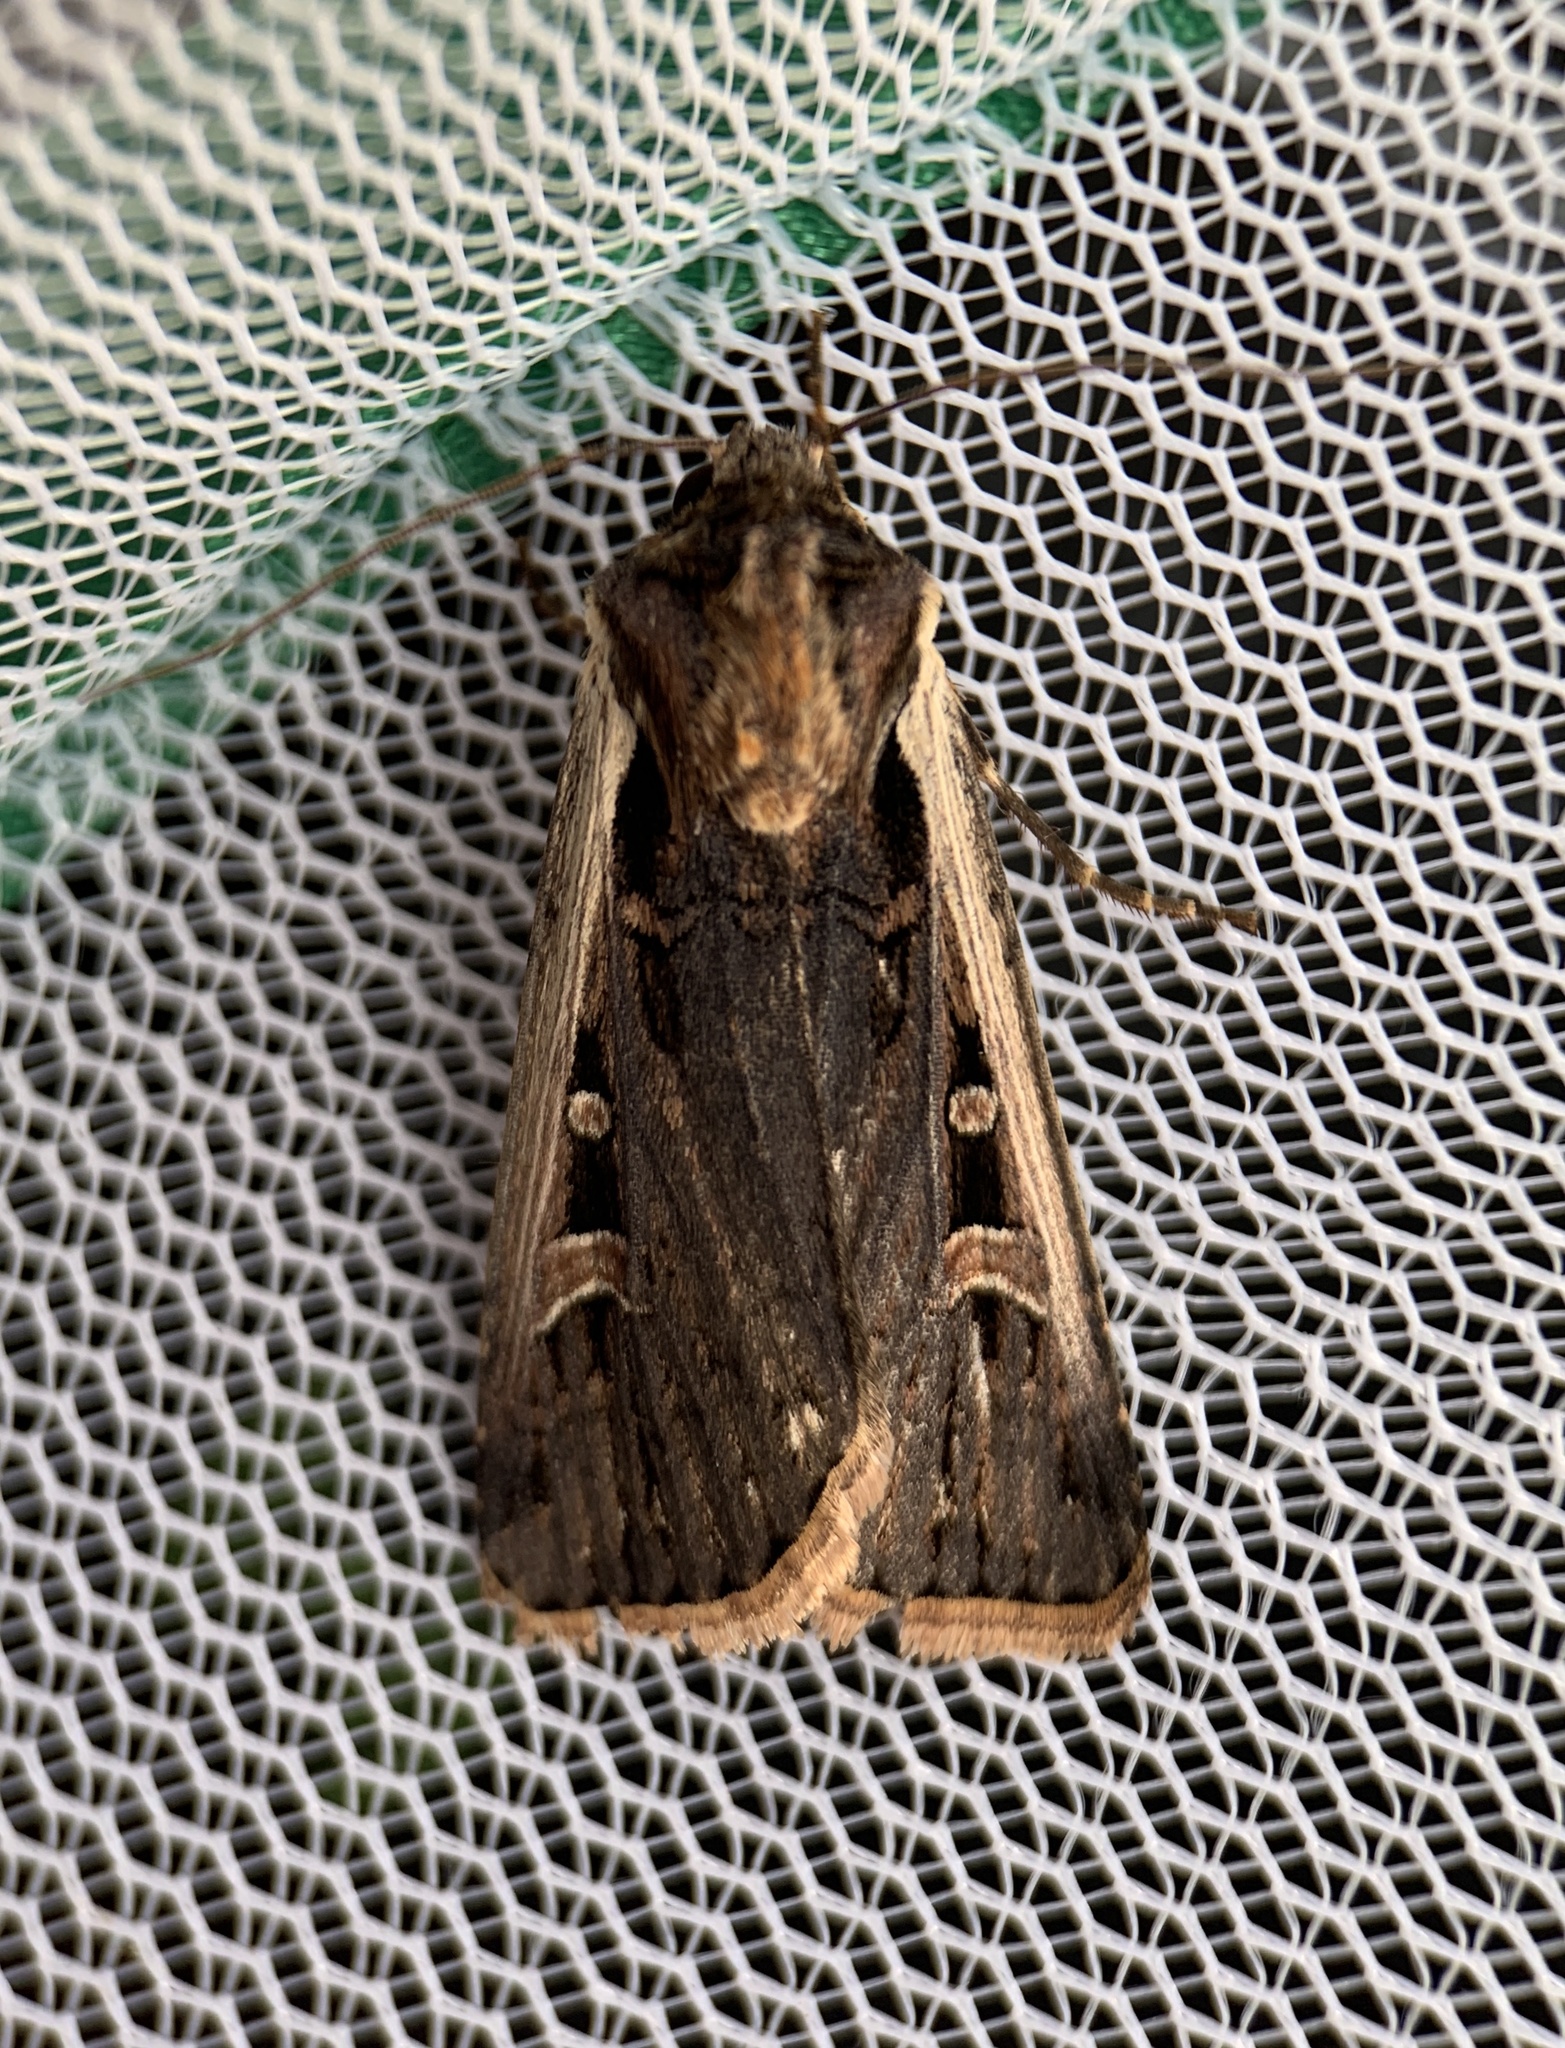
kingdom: Animalia
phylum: Arthropoda
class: Insecta
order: Lepidoptera
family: Noctuidae
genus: Striacosta
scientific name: Striacosta albicosta
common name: Western bean cutworm moth
